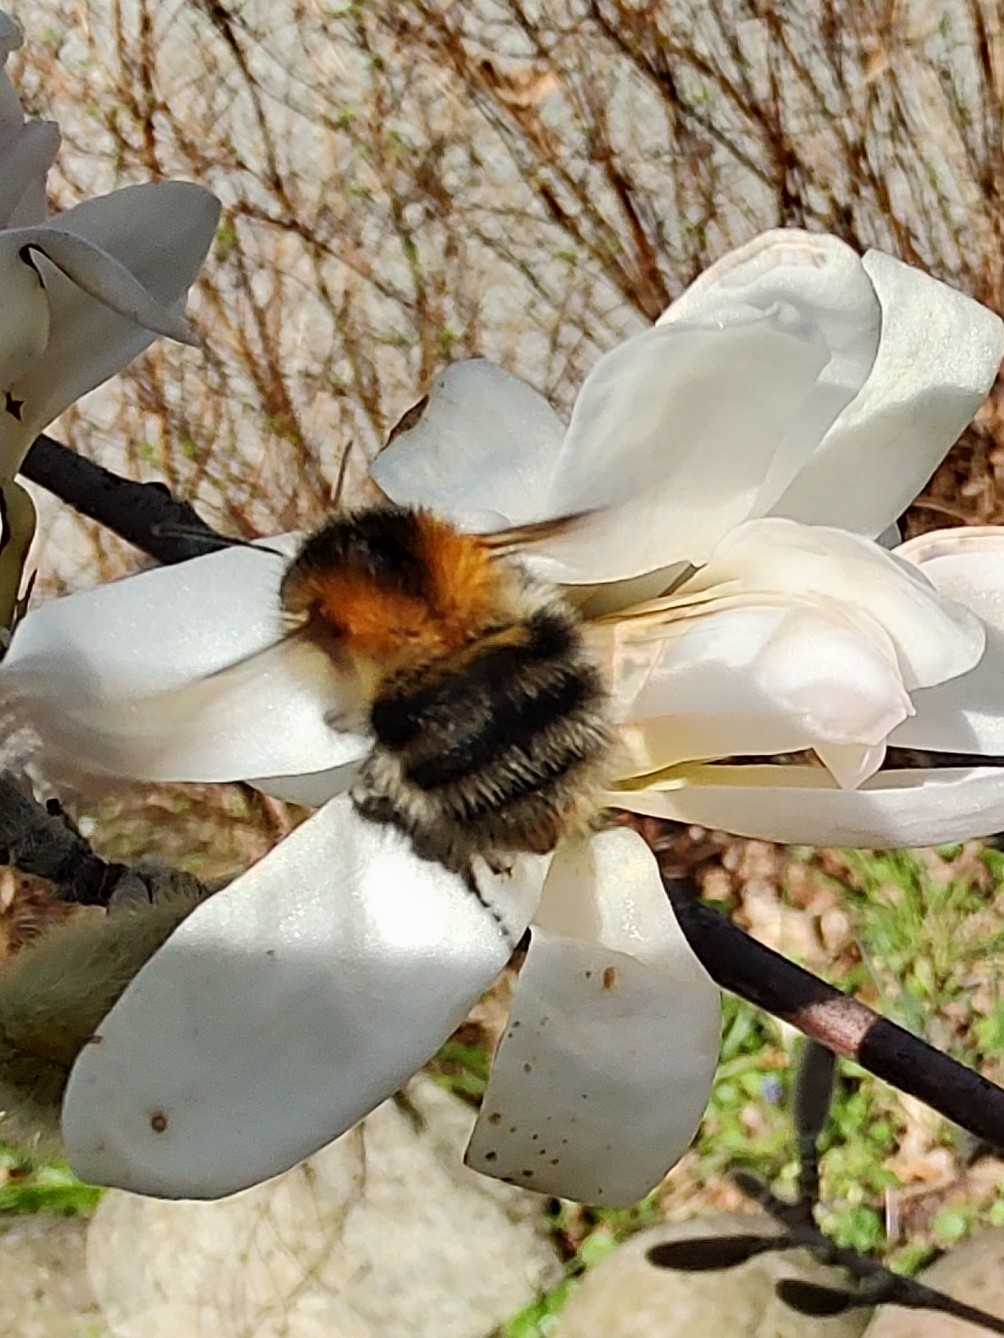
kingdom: Animalia
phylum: Arthropoda
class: Insecta
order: Hymenoptera
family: Apidae
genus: Bombus
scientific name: Bombus pascuorum
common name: Common carder bee
